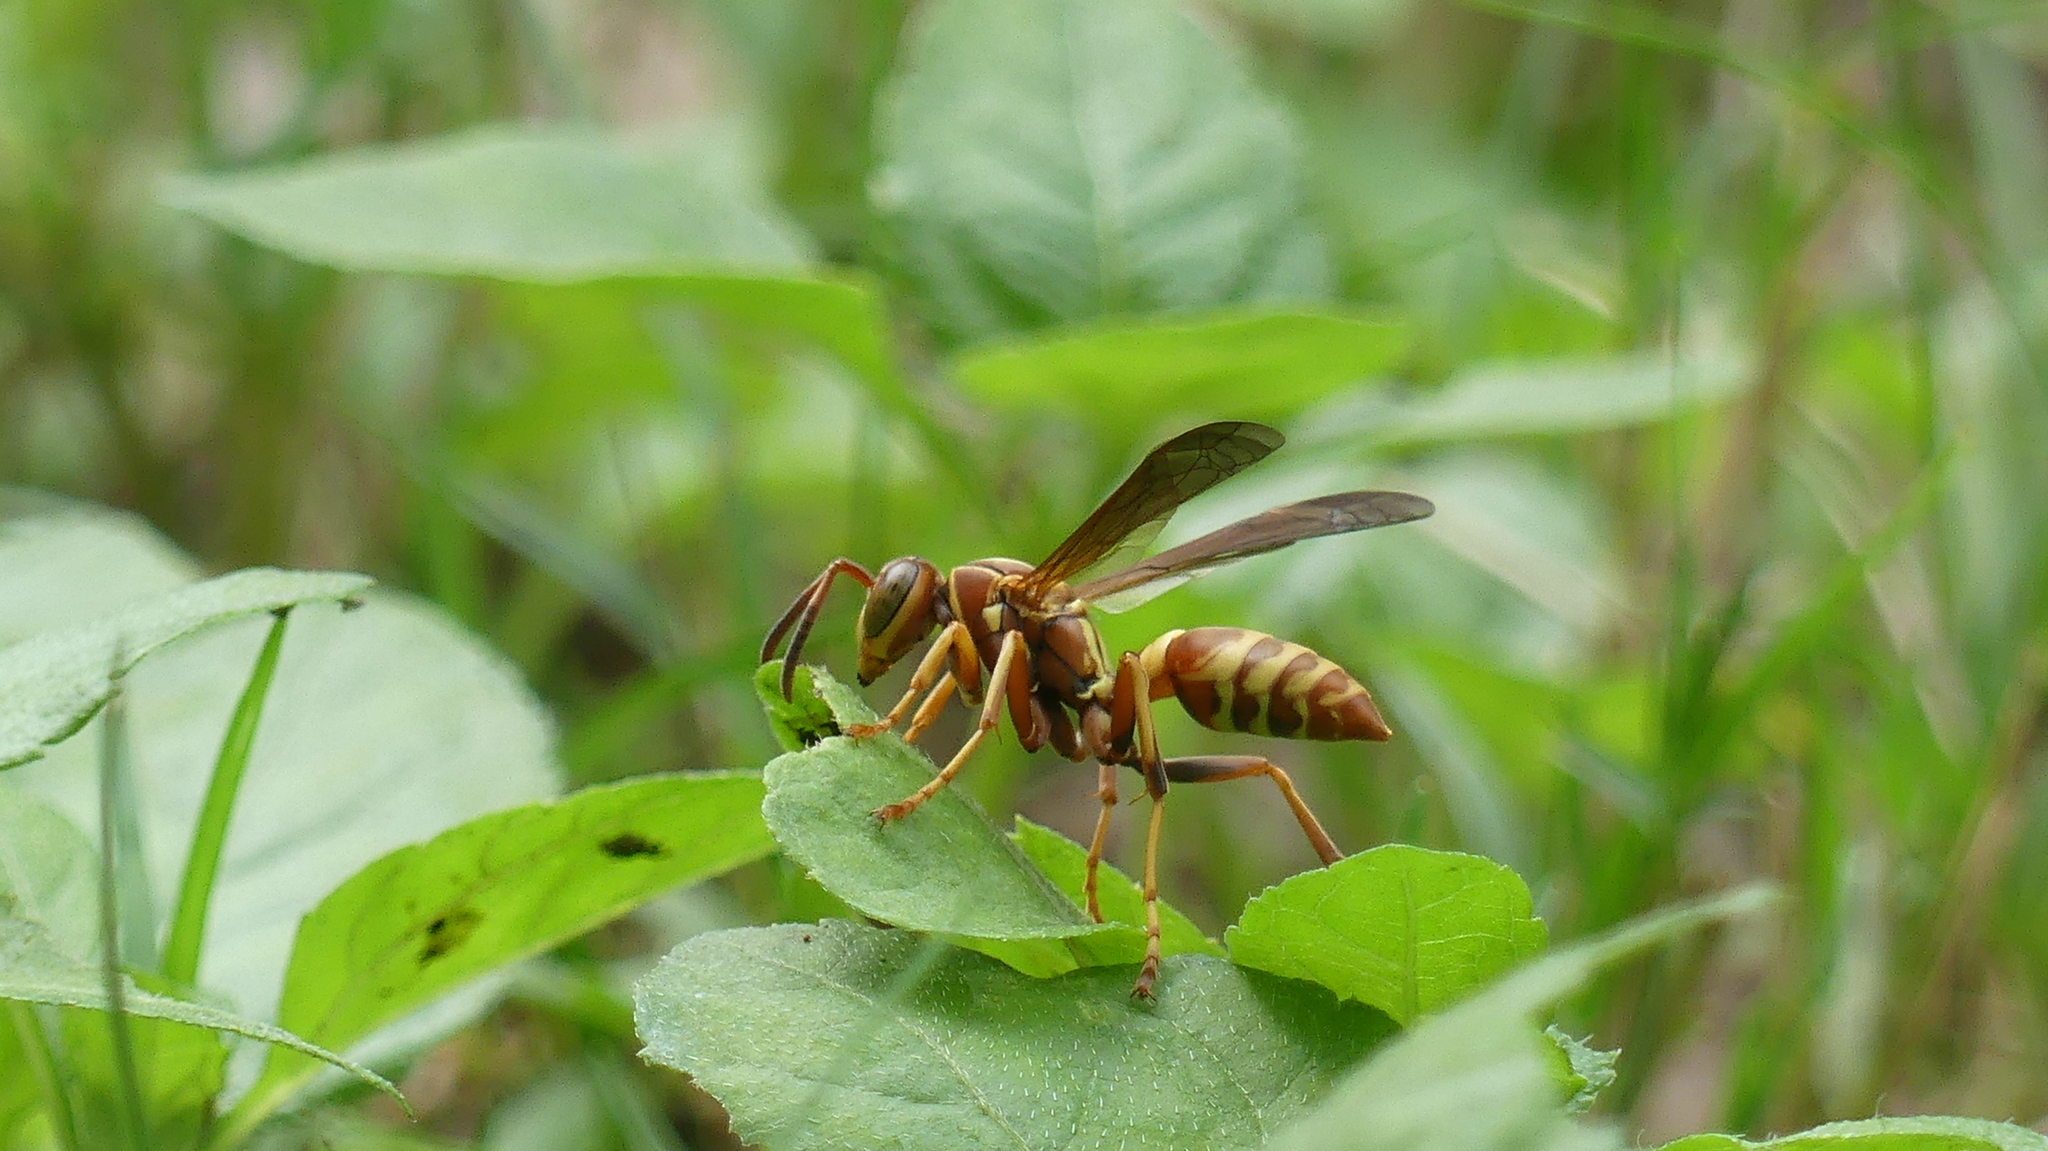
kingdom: Animalia
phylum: Arthropoda
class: Insecta
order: Hymenoptera
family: Eumenidae
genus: Polistes
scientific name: Polistes dorsalis
